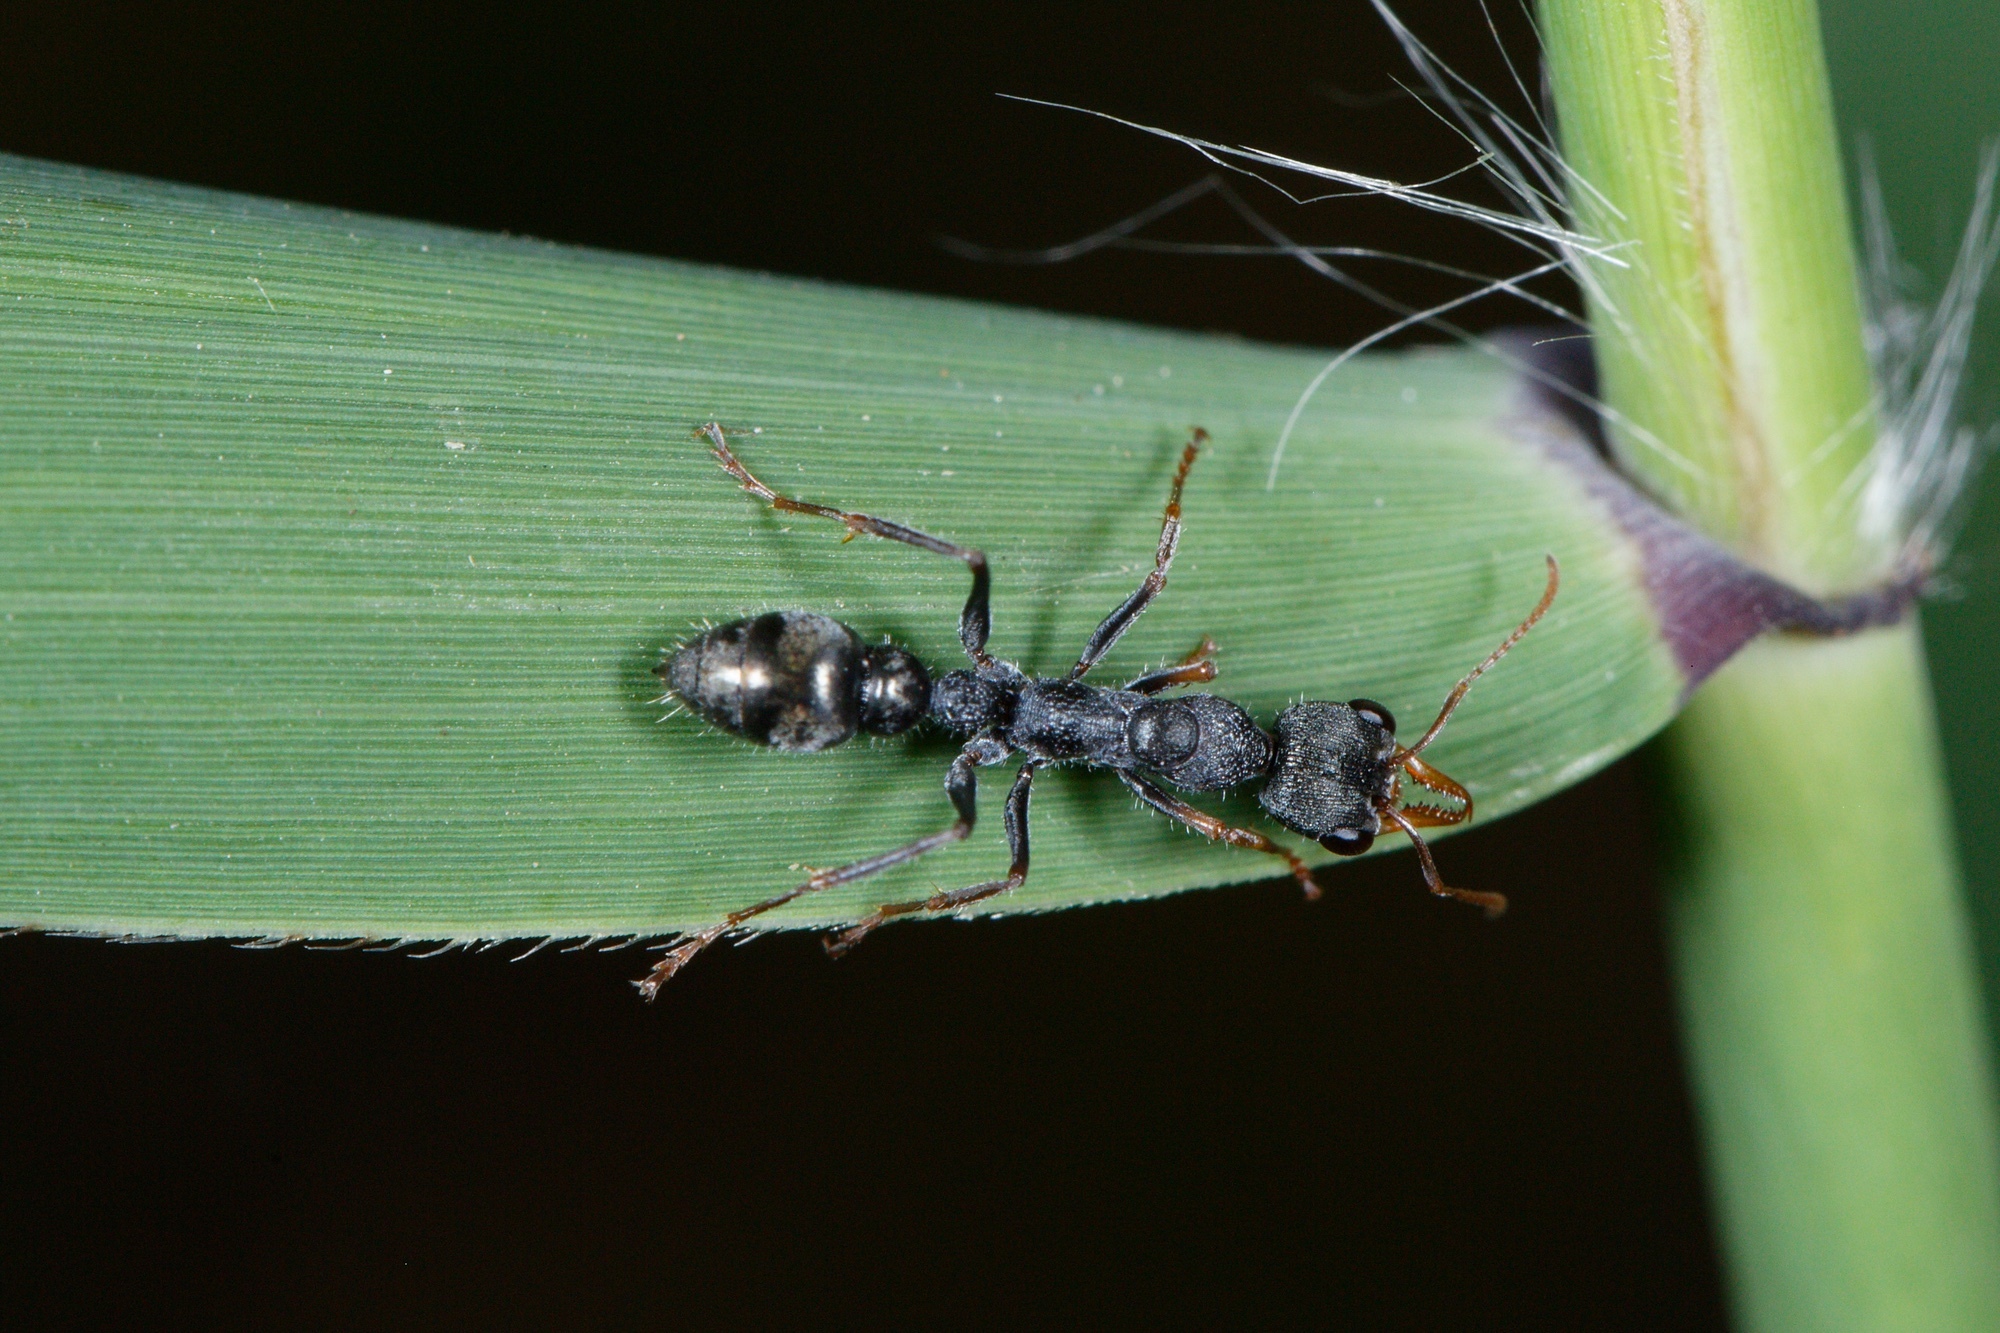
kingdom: Animalia
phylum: Arthropoda
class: Insecta
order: Hymenoptera
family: Formicidae
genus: Myrmecia
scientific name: Myrmecia urens
